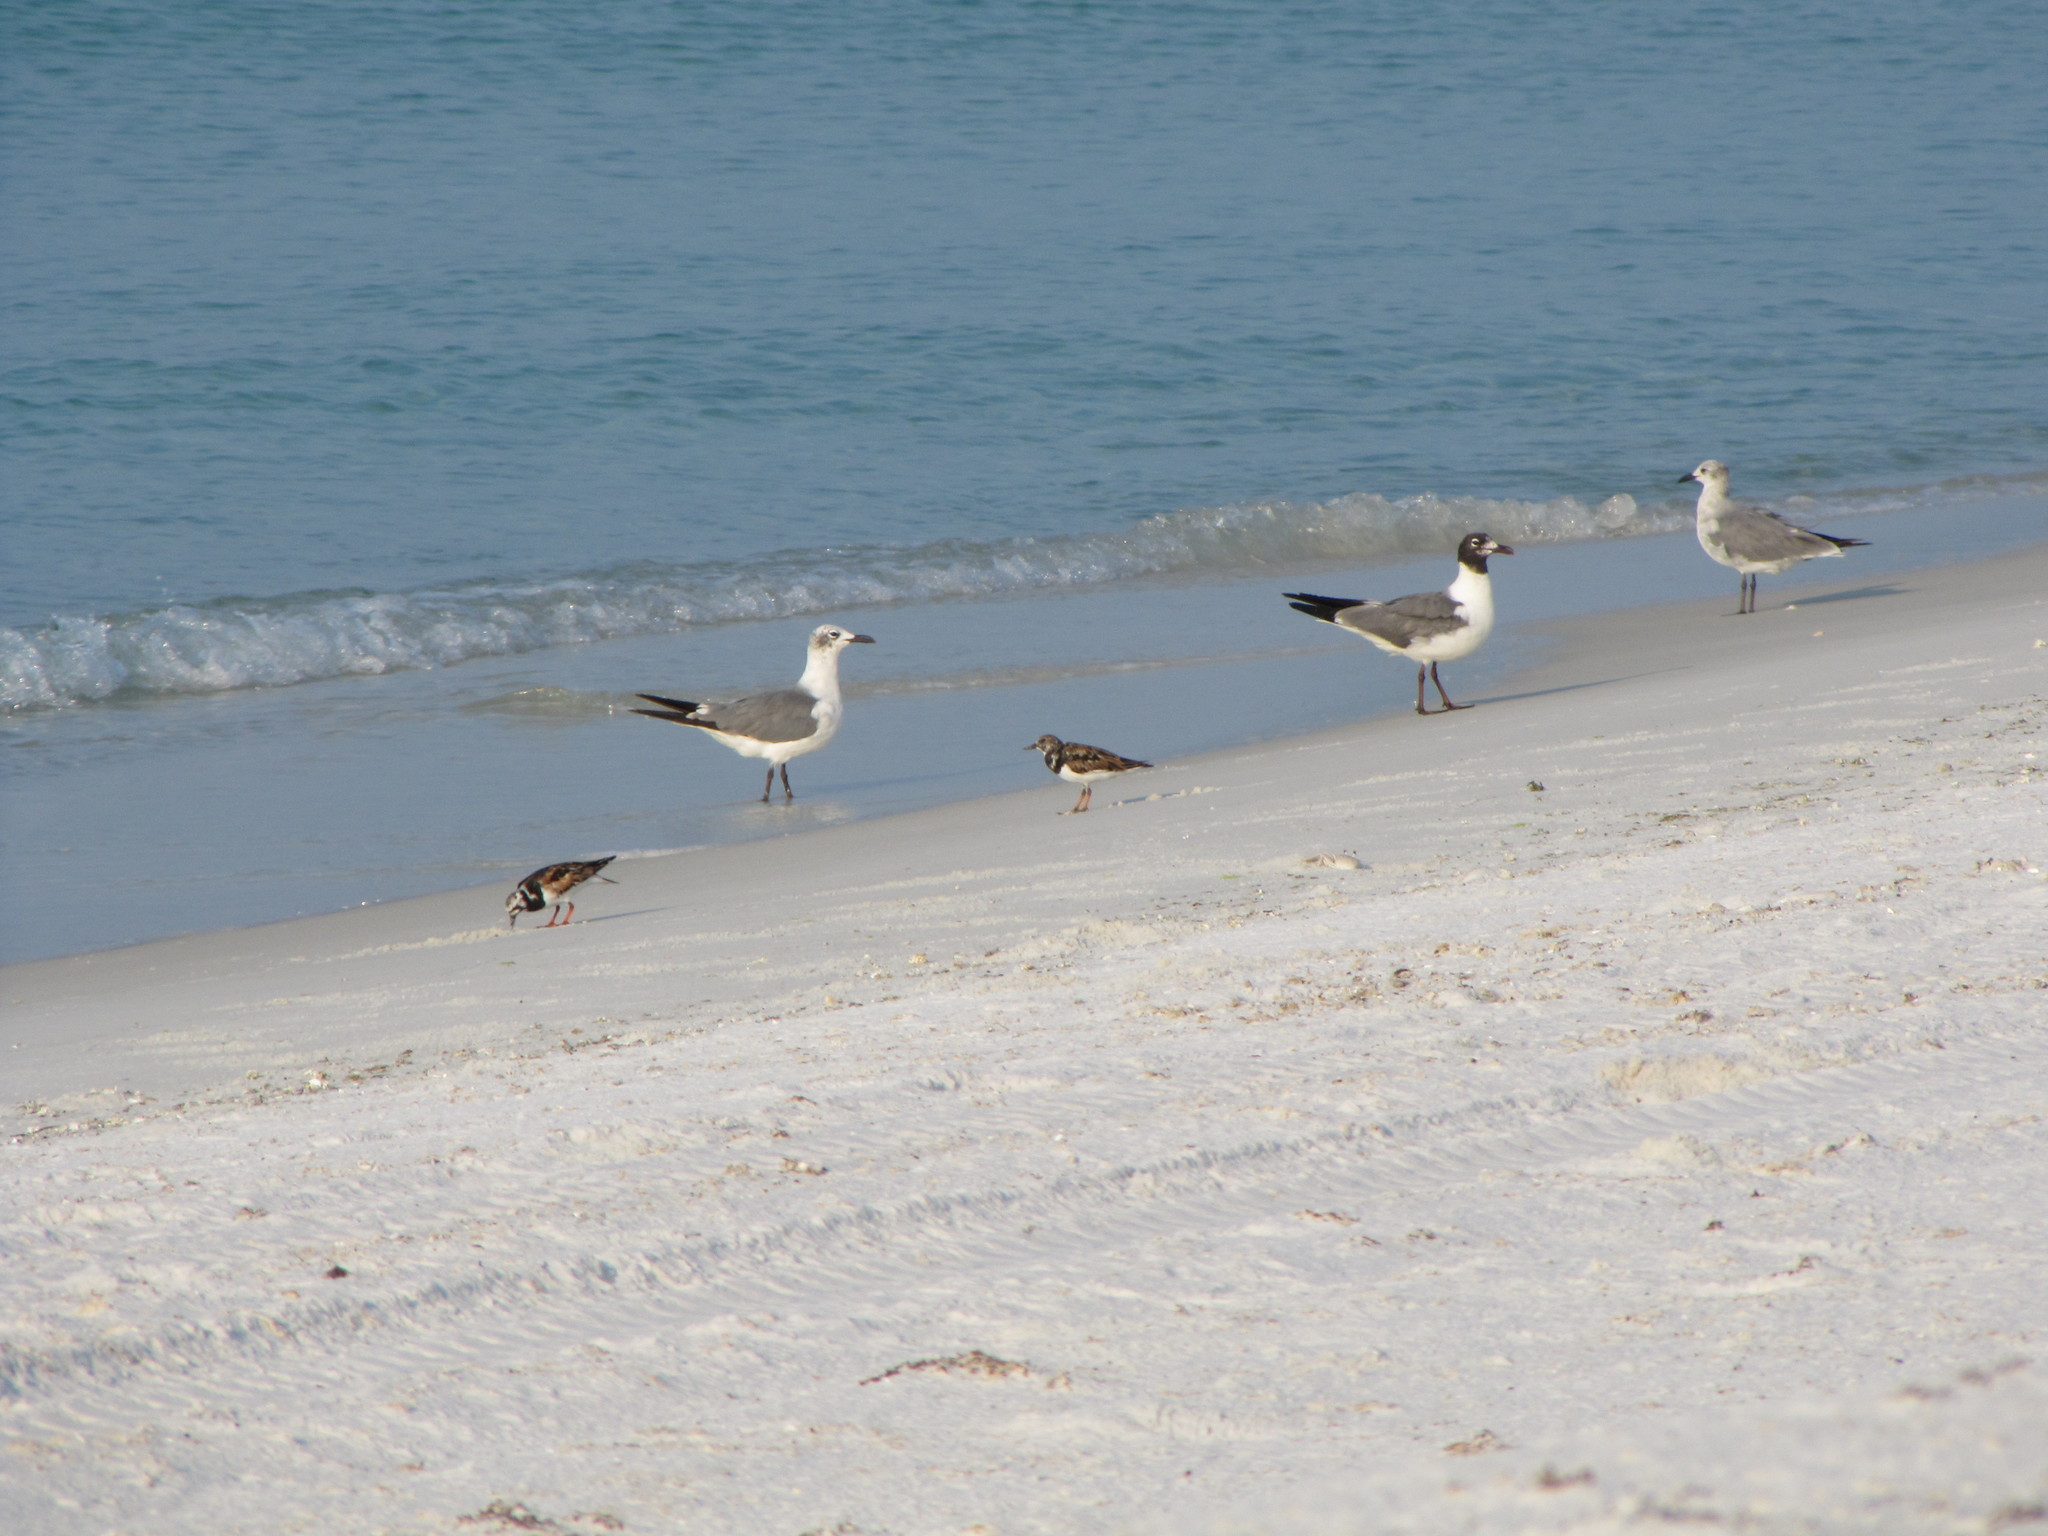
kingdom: Animalia
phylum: Chordata
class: Aves
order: Charadriiformes
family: Laridae
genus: Leucophaeus
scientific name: Leucophaeus atricilla
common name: Laughing gull
